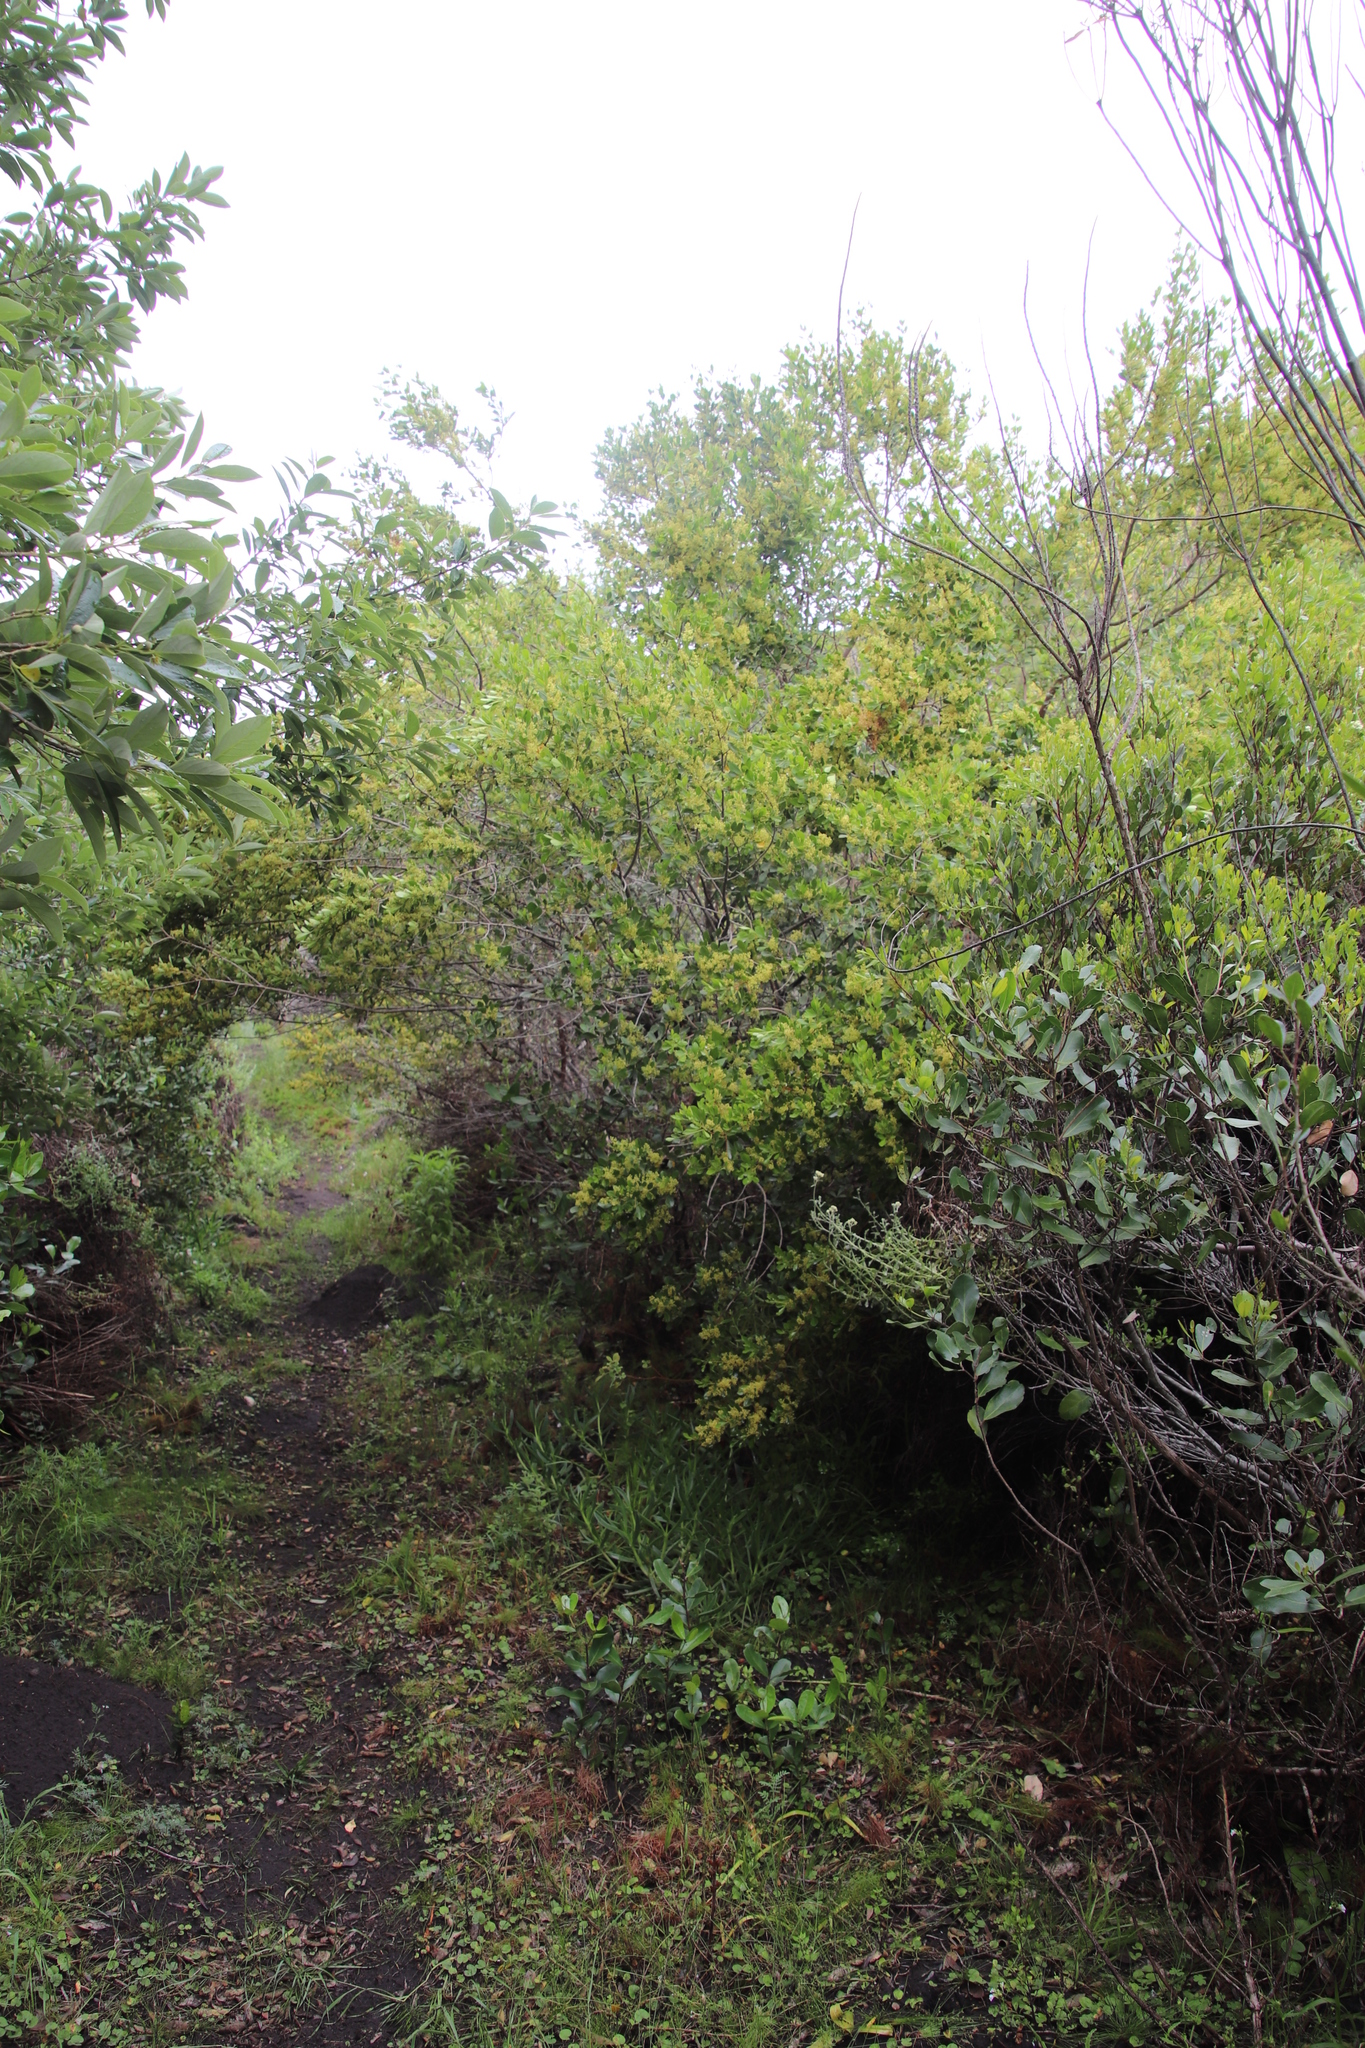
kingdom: Plantae
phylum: Tracheophyta
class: Magnoliopsida
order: Sapindales
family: Anacardiaceae
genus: Searsia
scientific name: Searsia lucida
